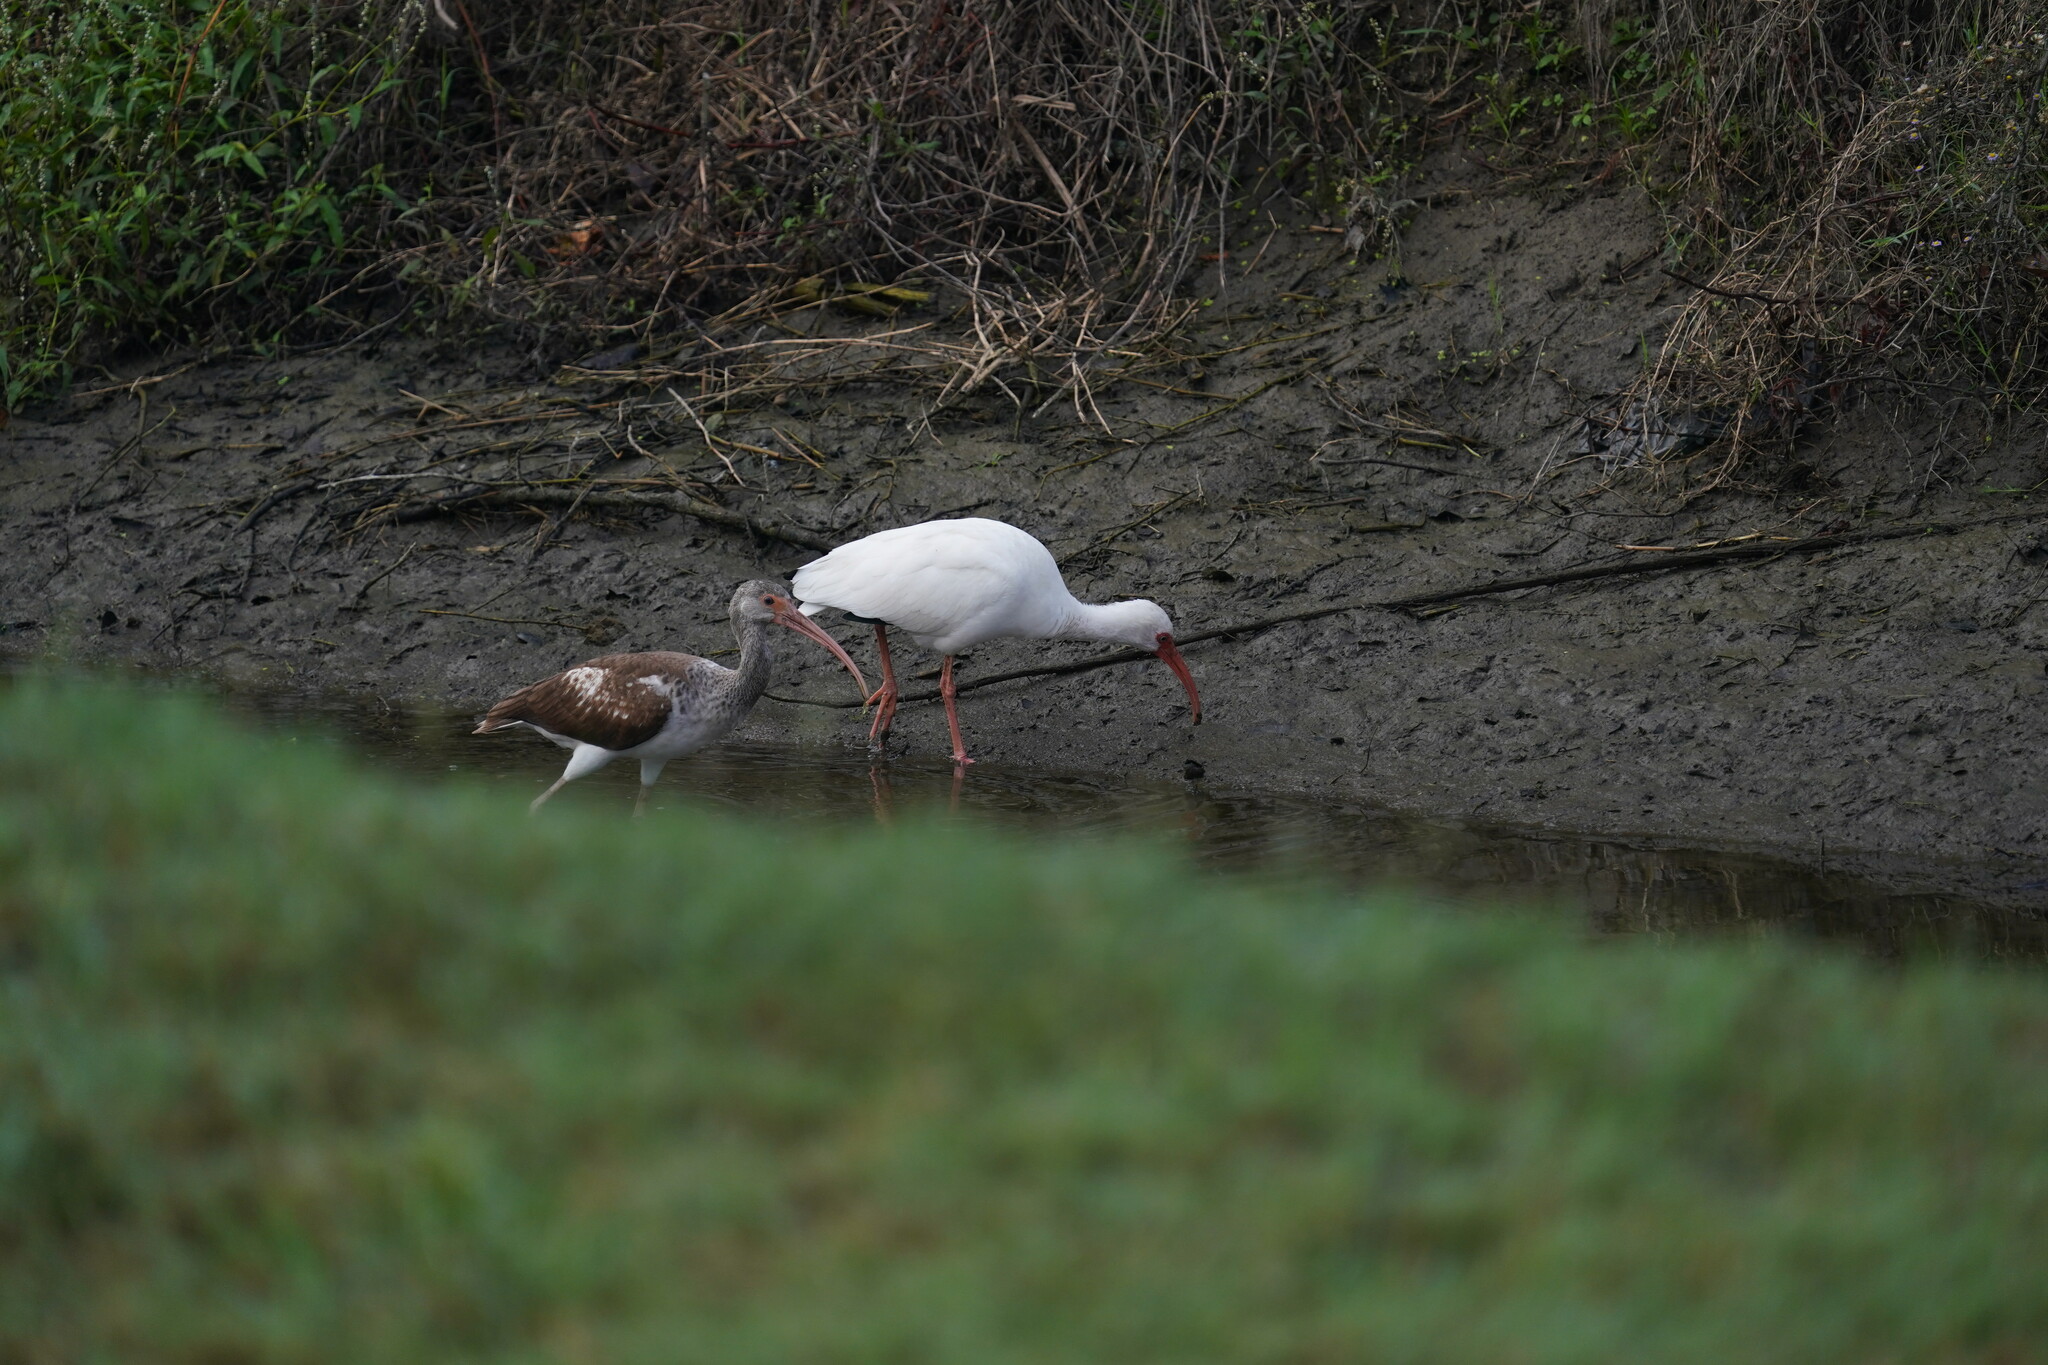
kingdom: Animalia
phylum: Chordata
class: Aves
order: Pelecaniformes
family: Threskiornithidae
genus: Eudocimus
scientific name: Eudocimus albus
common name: White ibis
